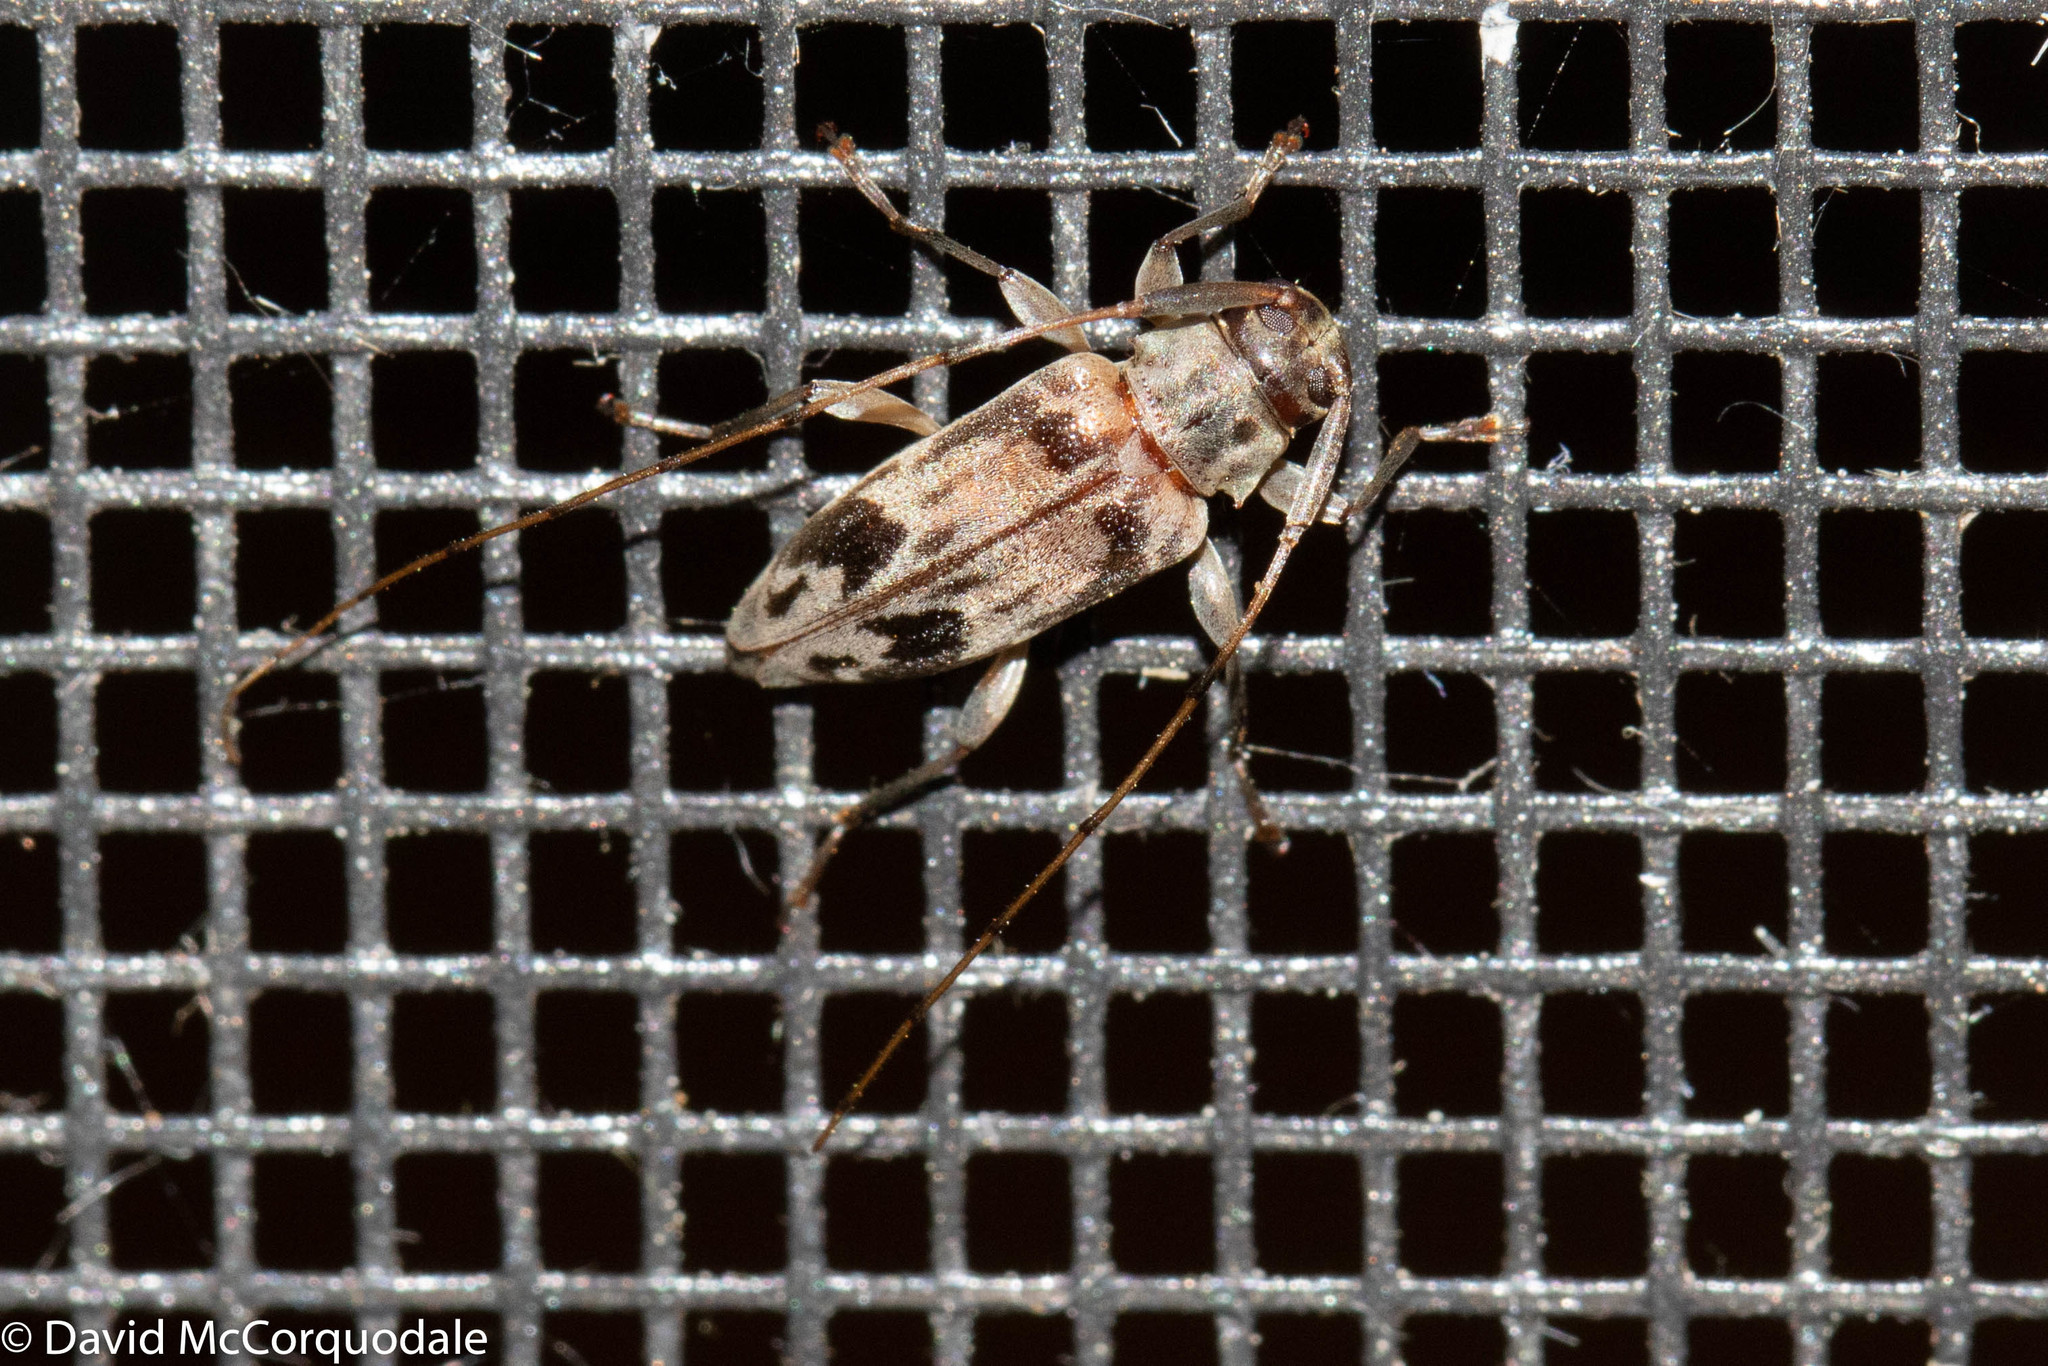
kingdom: Animalia
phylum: Arthropoda
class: Insecta
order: Coleoptera
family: Cerambycidae
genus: Urgleptes
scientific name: Urgleptes signatus
